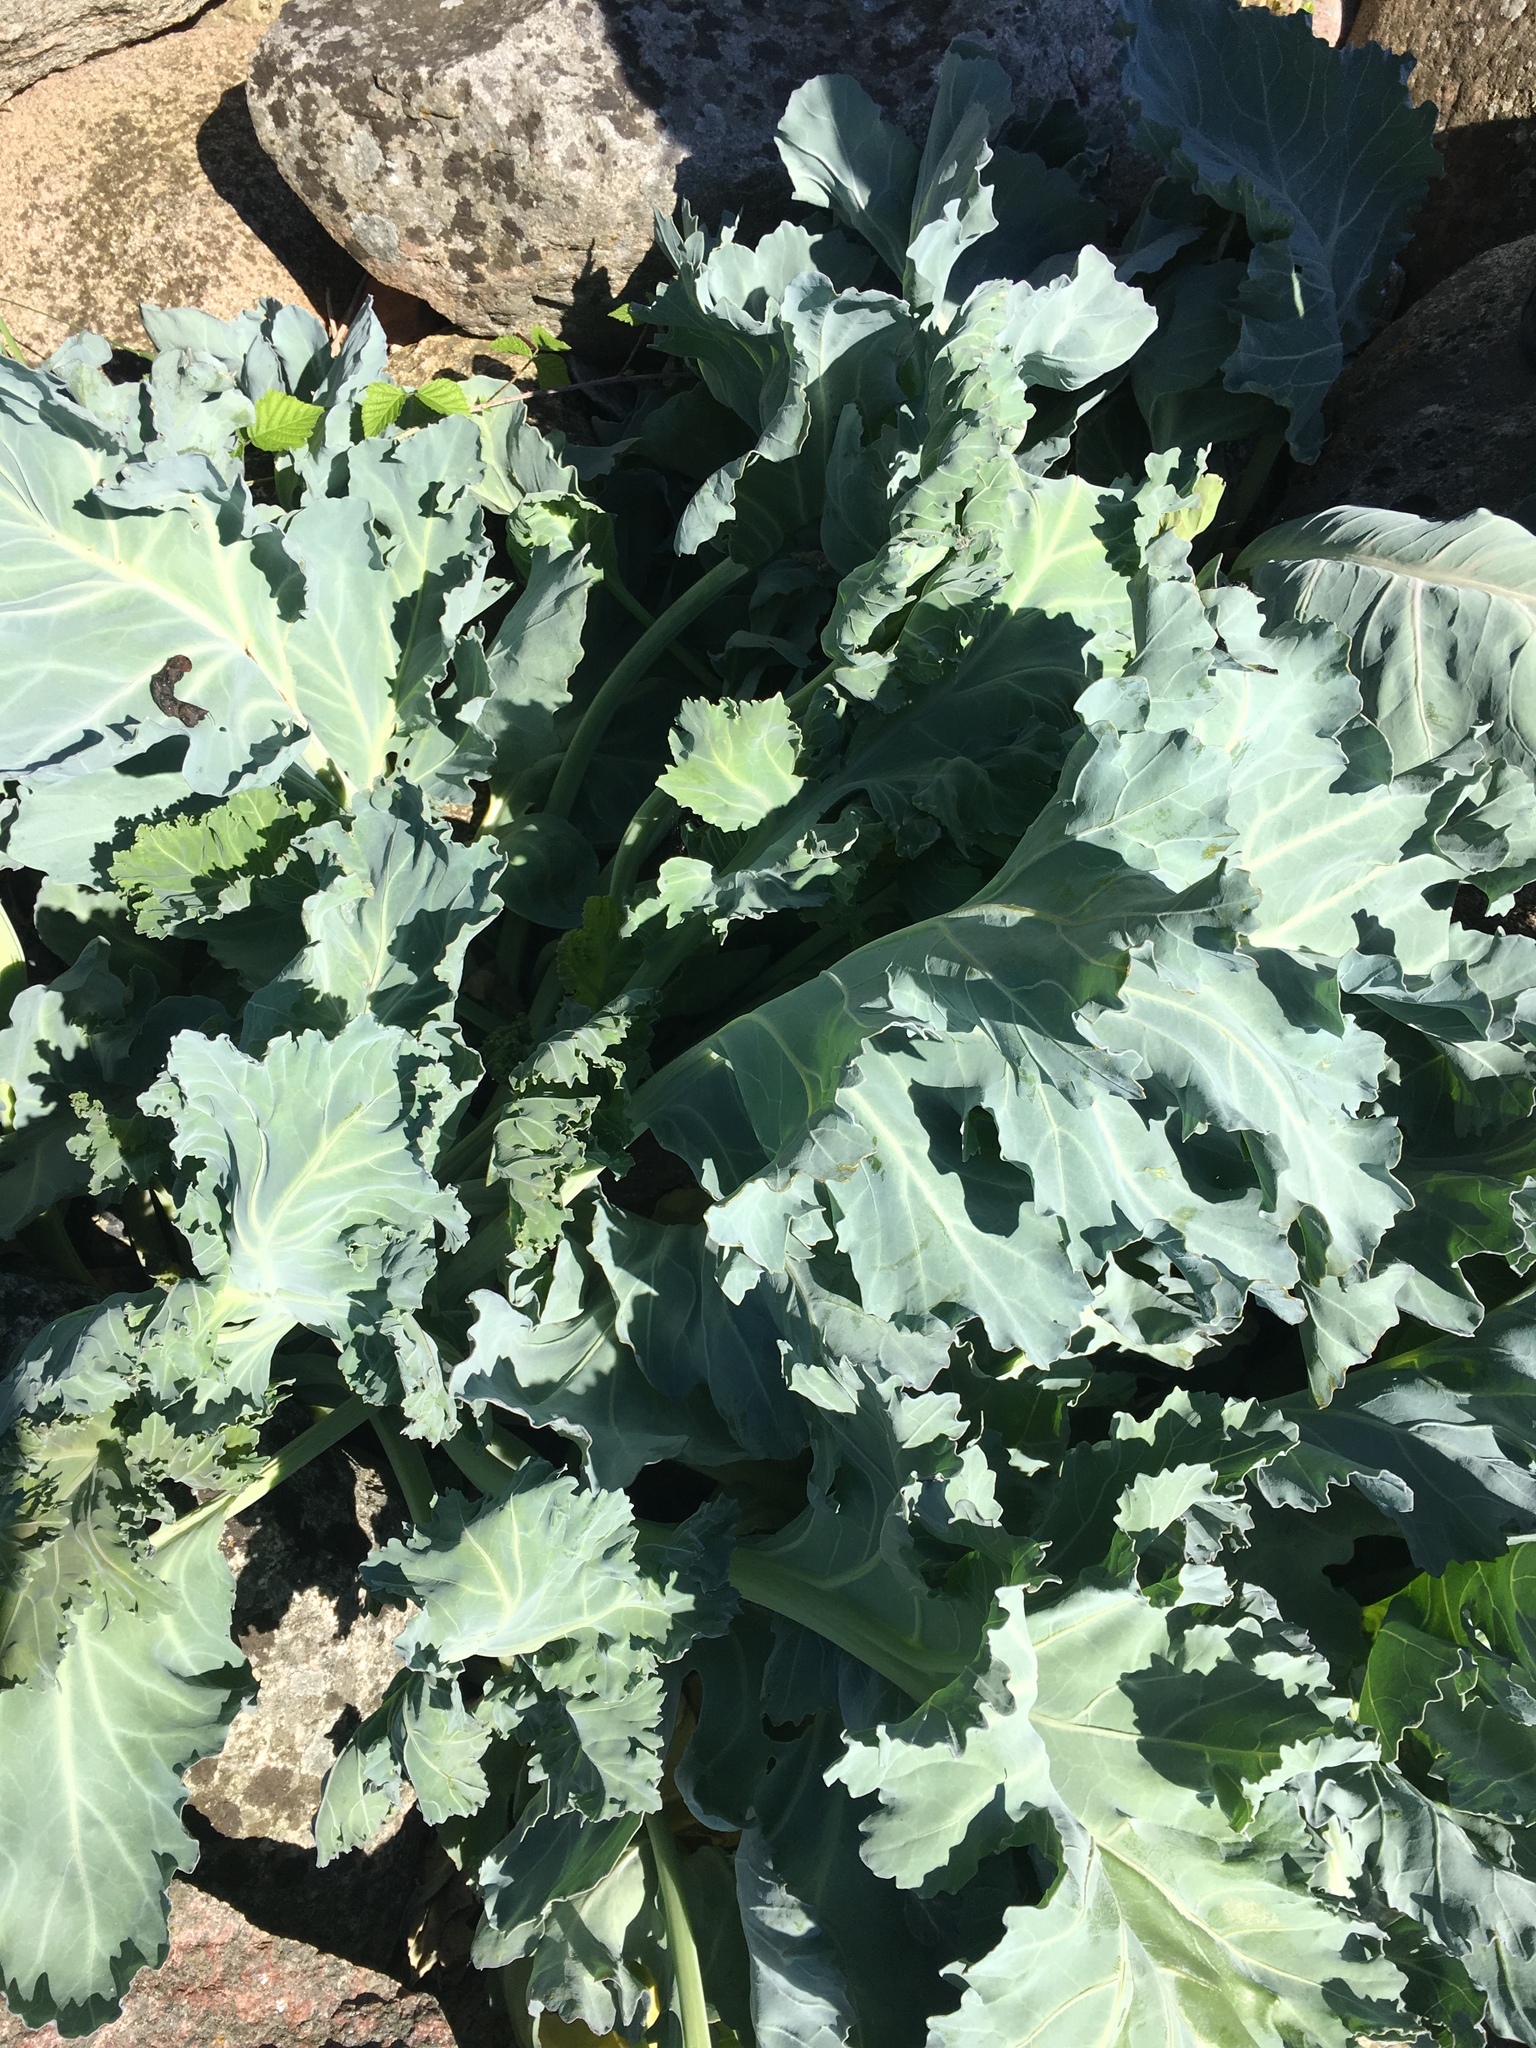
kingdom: Plantae
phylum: Tracheophyta
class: Magnoliopsida
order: Brassicales
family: Brassicaceae
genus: Crambe
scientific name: Crambe maritima
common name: Sea-kale
